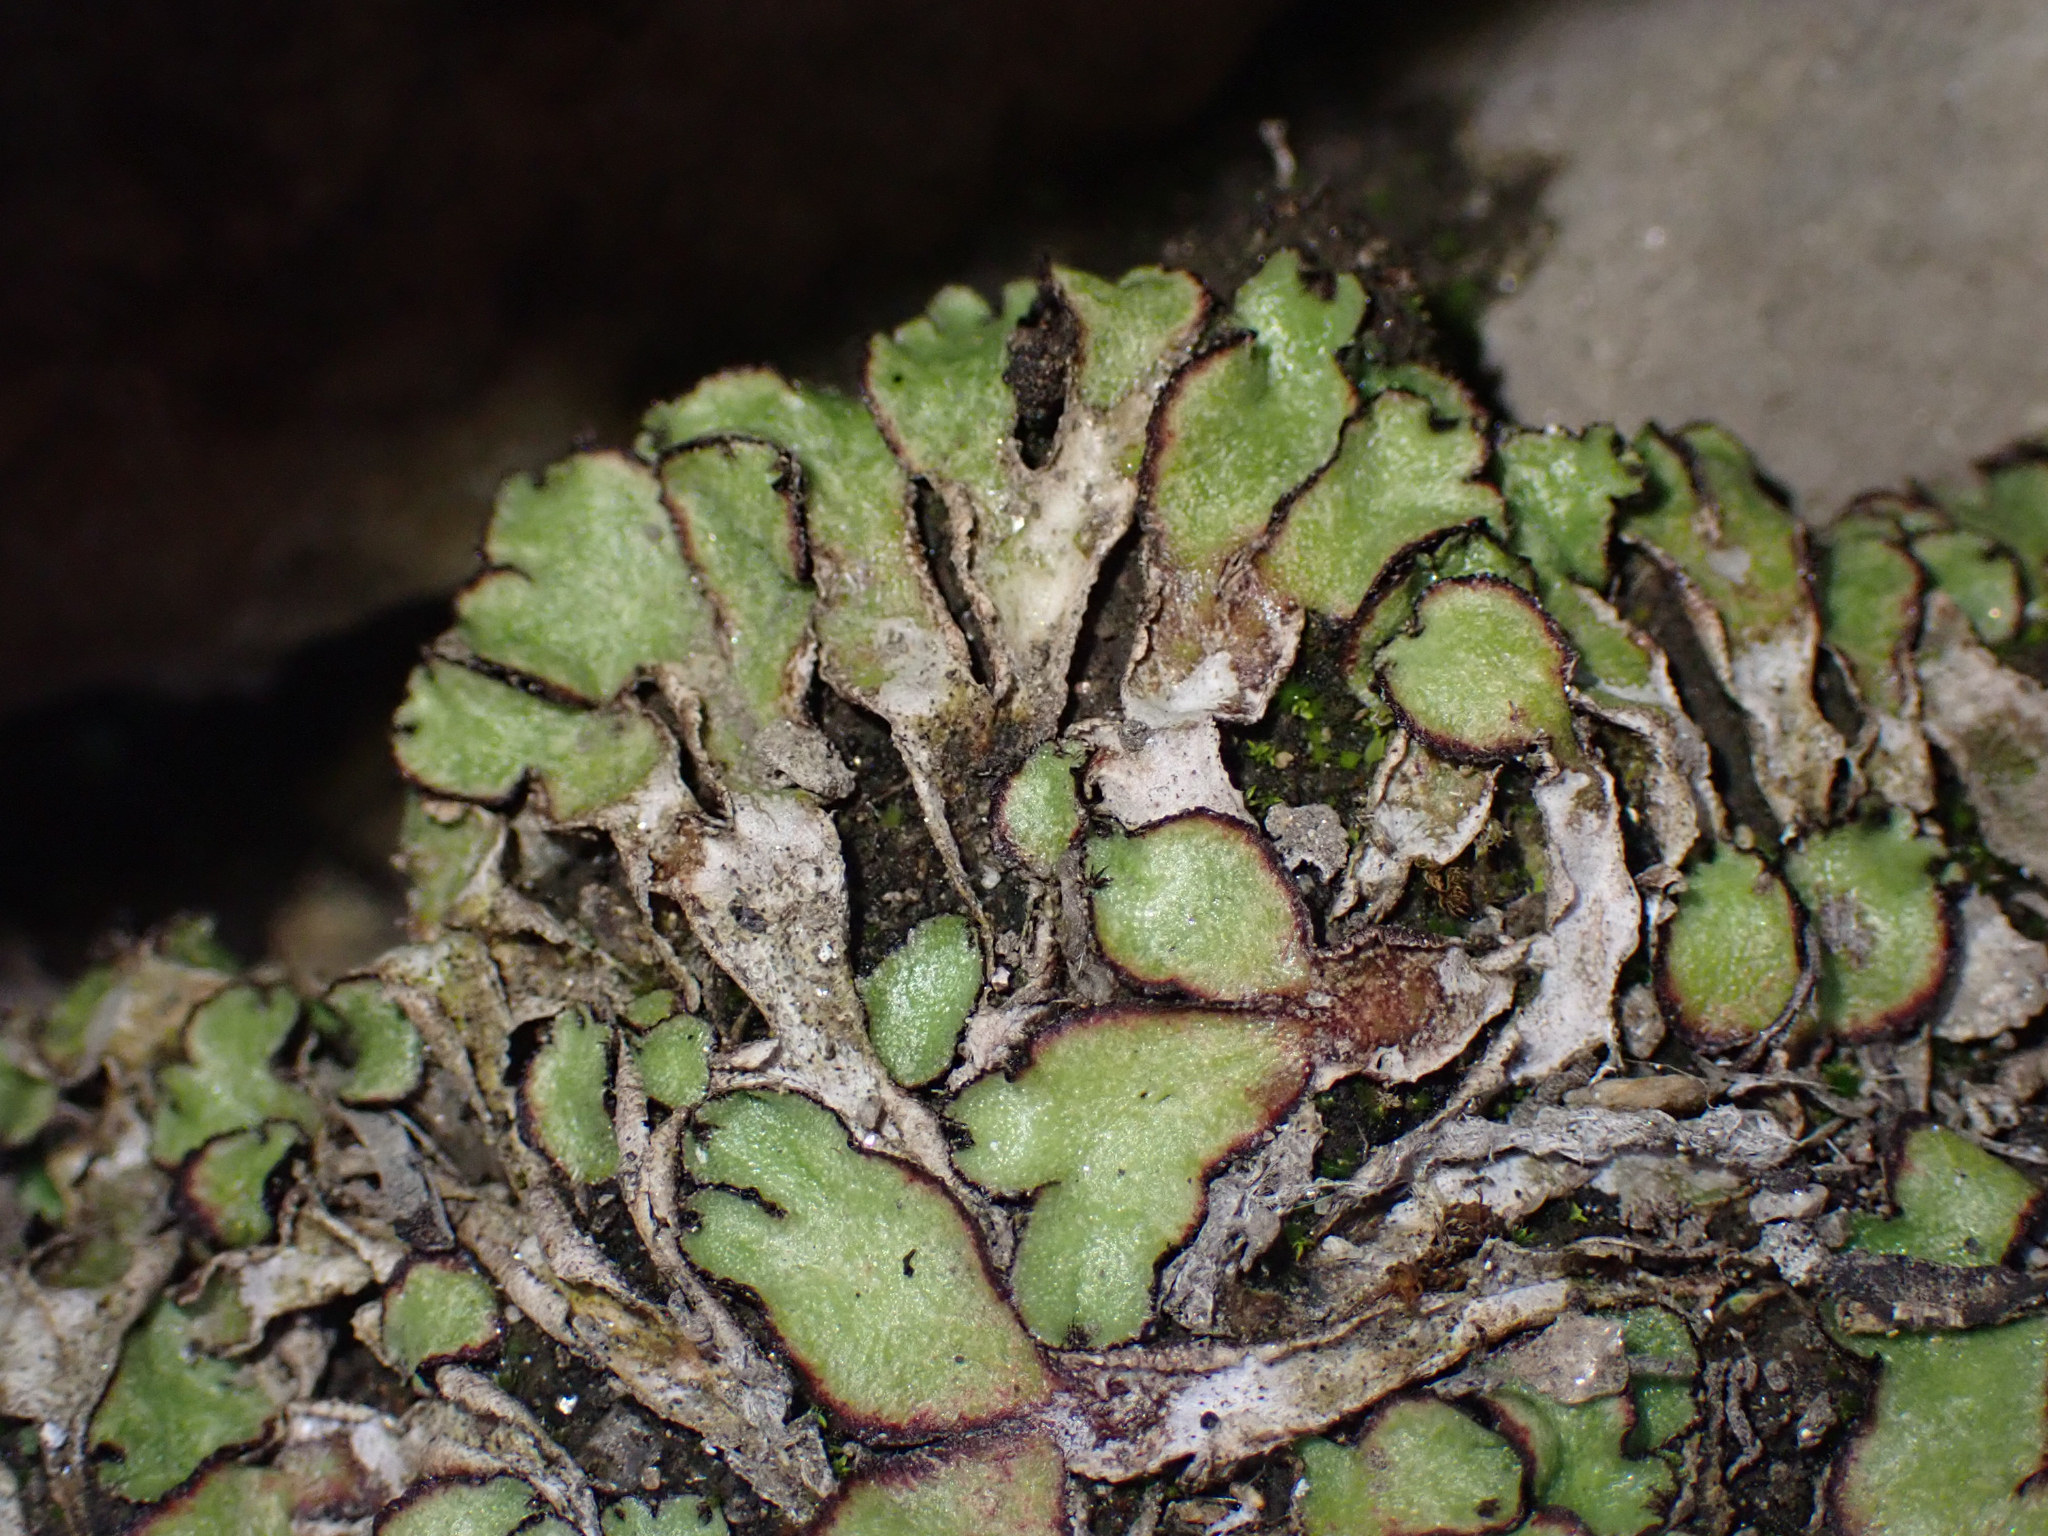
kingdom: Plantae
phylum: Marchantiophyta
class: Marchantiopsida
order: Marchantiales
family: Aytoniaceae
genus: Reboulia
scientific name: Reboulia hemisphaerica
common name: Purple-margined liverwort
